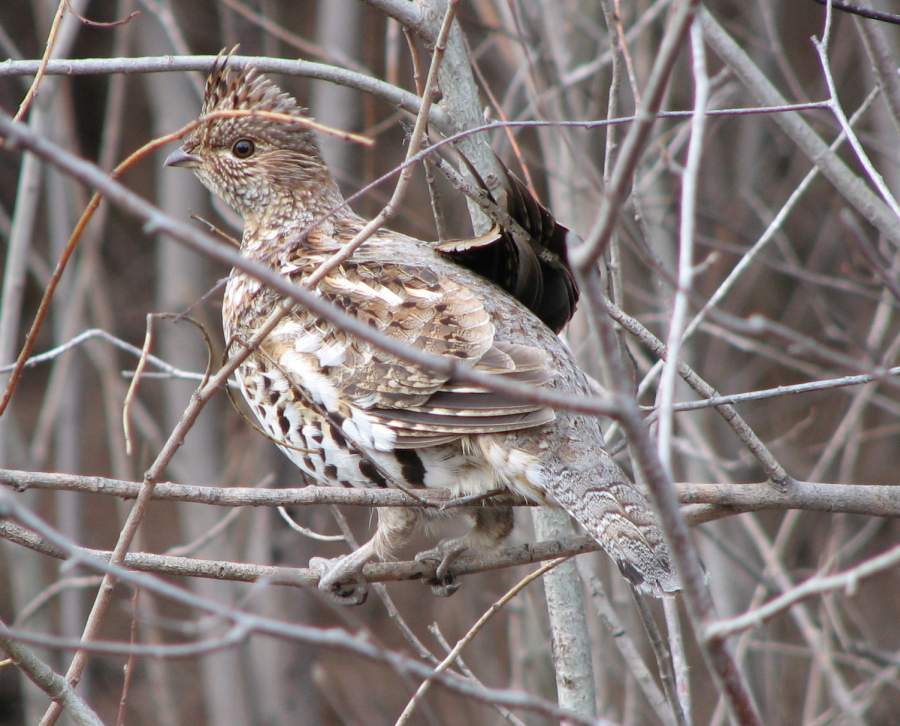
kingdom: Animalia
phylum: Chordata
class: Aves
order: Galliformes
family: Phasianidae
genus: Bonasa
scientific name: Bonasa umbellus
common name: Ruffed grouse
